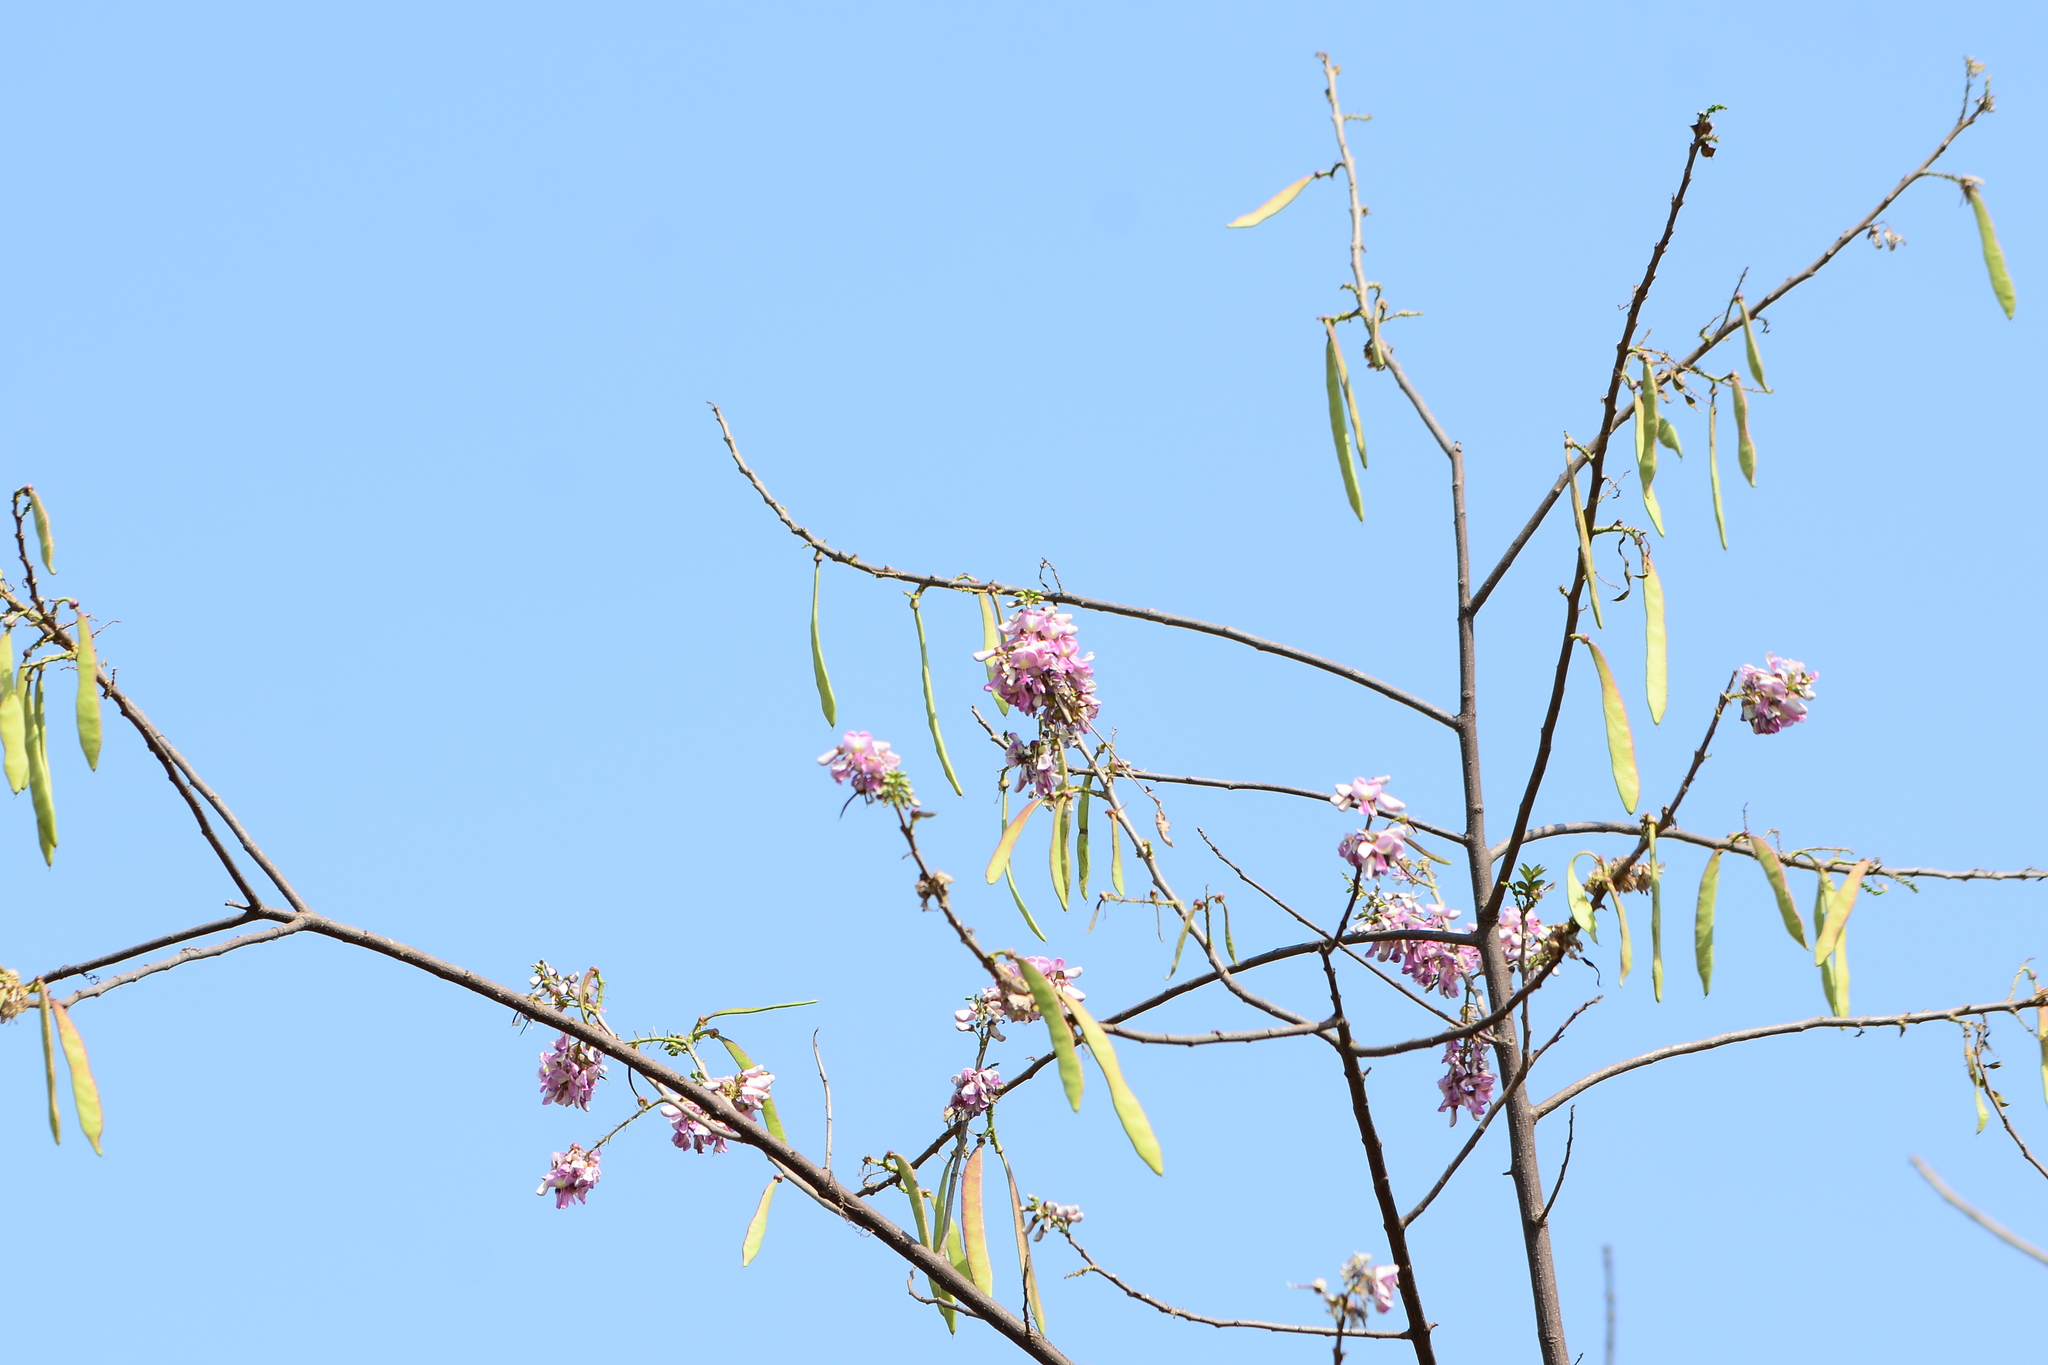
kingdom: Plantae
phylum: Tracheophyta
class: Magnoliopsida
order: Fabales
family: Fabaceae
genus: Gliricidia
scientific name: Gliricidia sepium
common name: Quickstick
